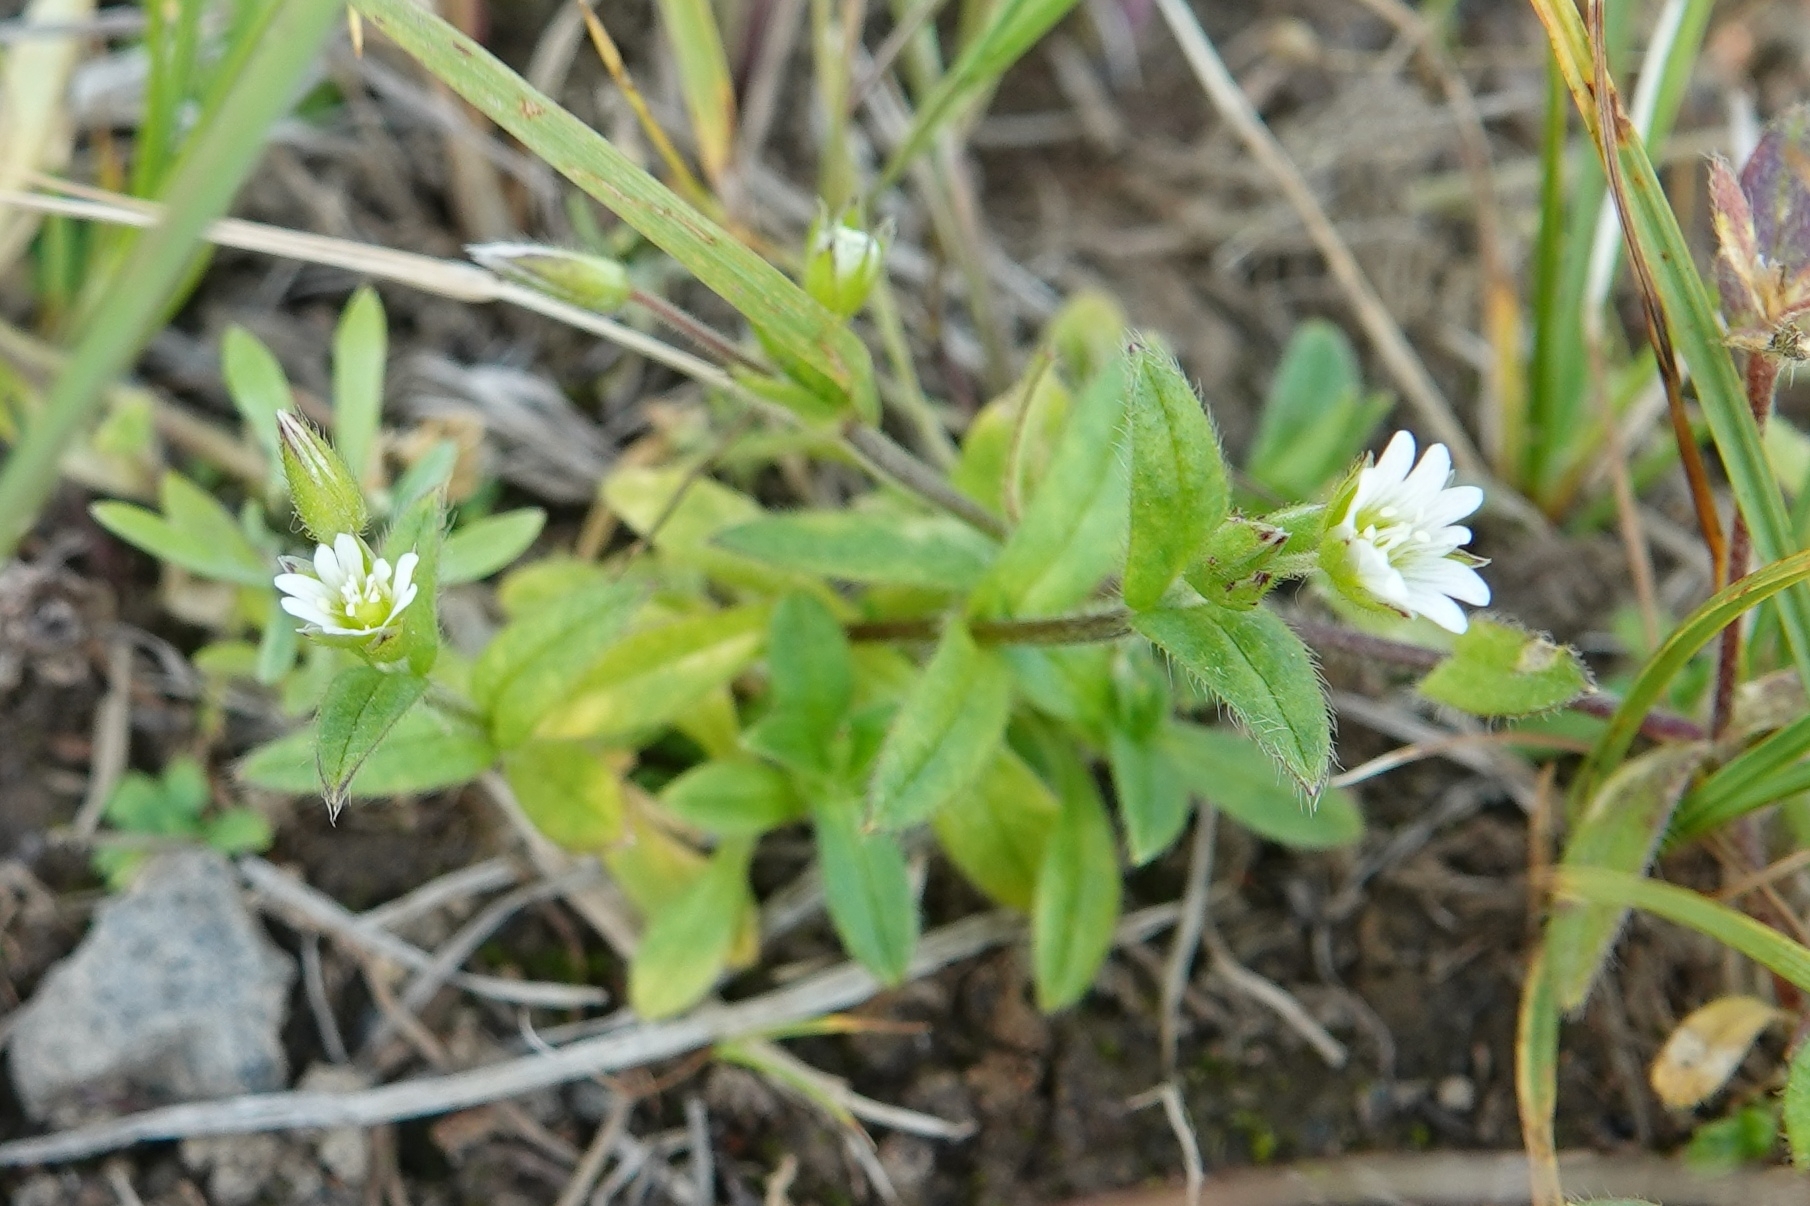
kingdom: Plantae
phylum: Tracheophyta
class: Magnoliopsida
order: Caryophyllales
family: Caryophyllaceae
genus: Cerastium
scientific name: Cerastium holosteoides
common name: Big chickweed
